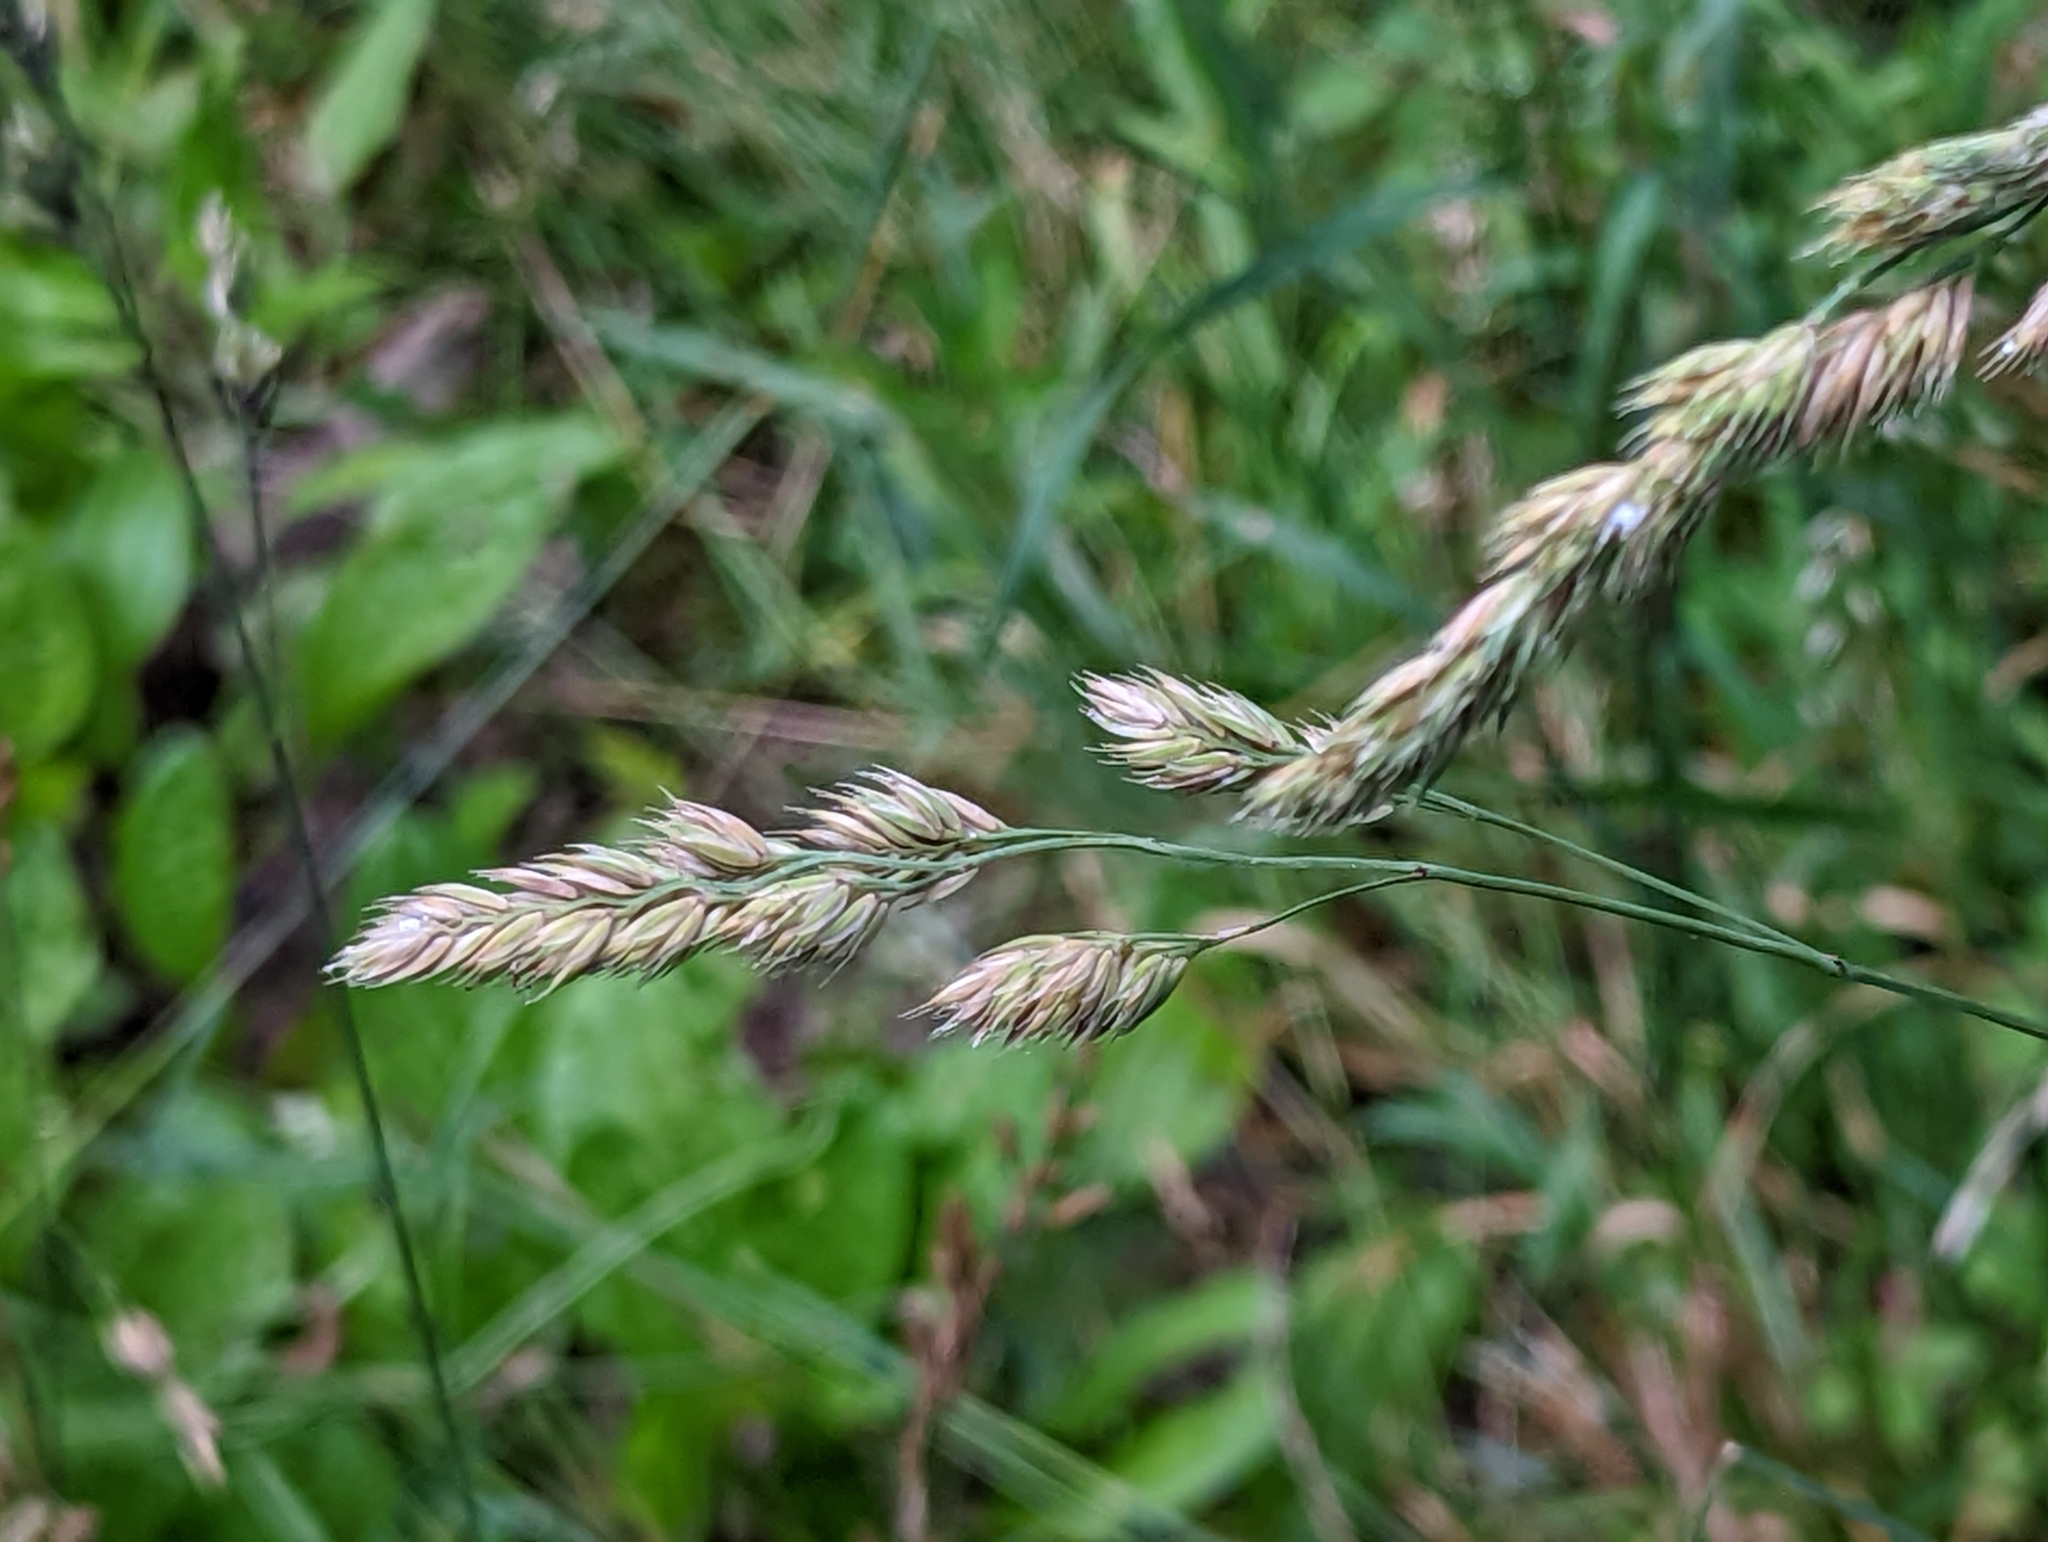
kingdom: Plantae
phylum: Tracheophyta
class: Liliopsida
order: Poales
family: Poaceae
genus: Dactylis
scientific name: Dactylis glomerata
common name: Orchardgrass
